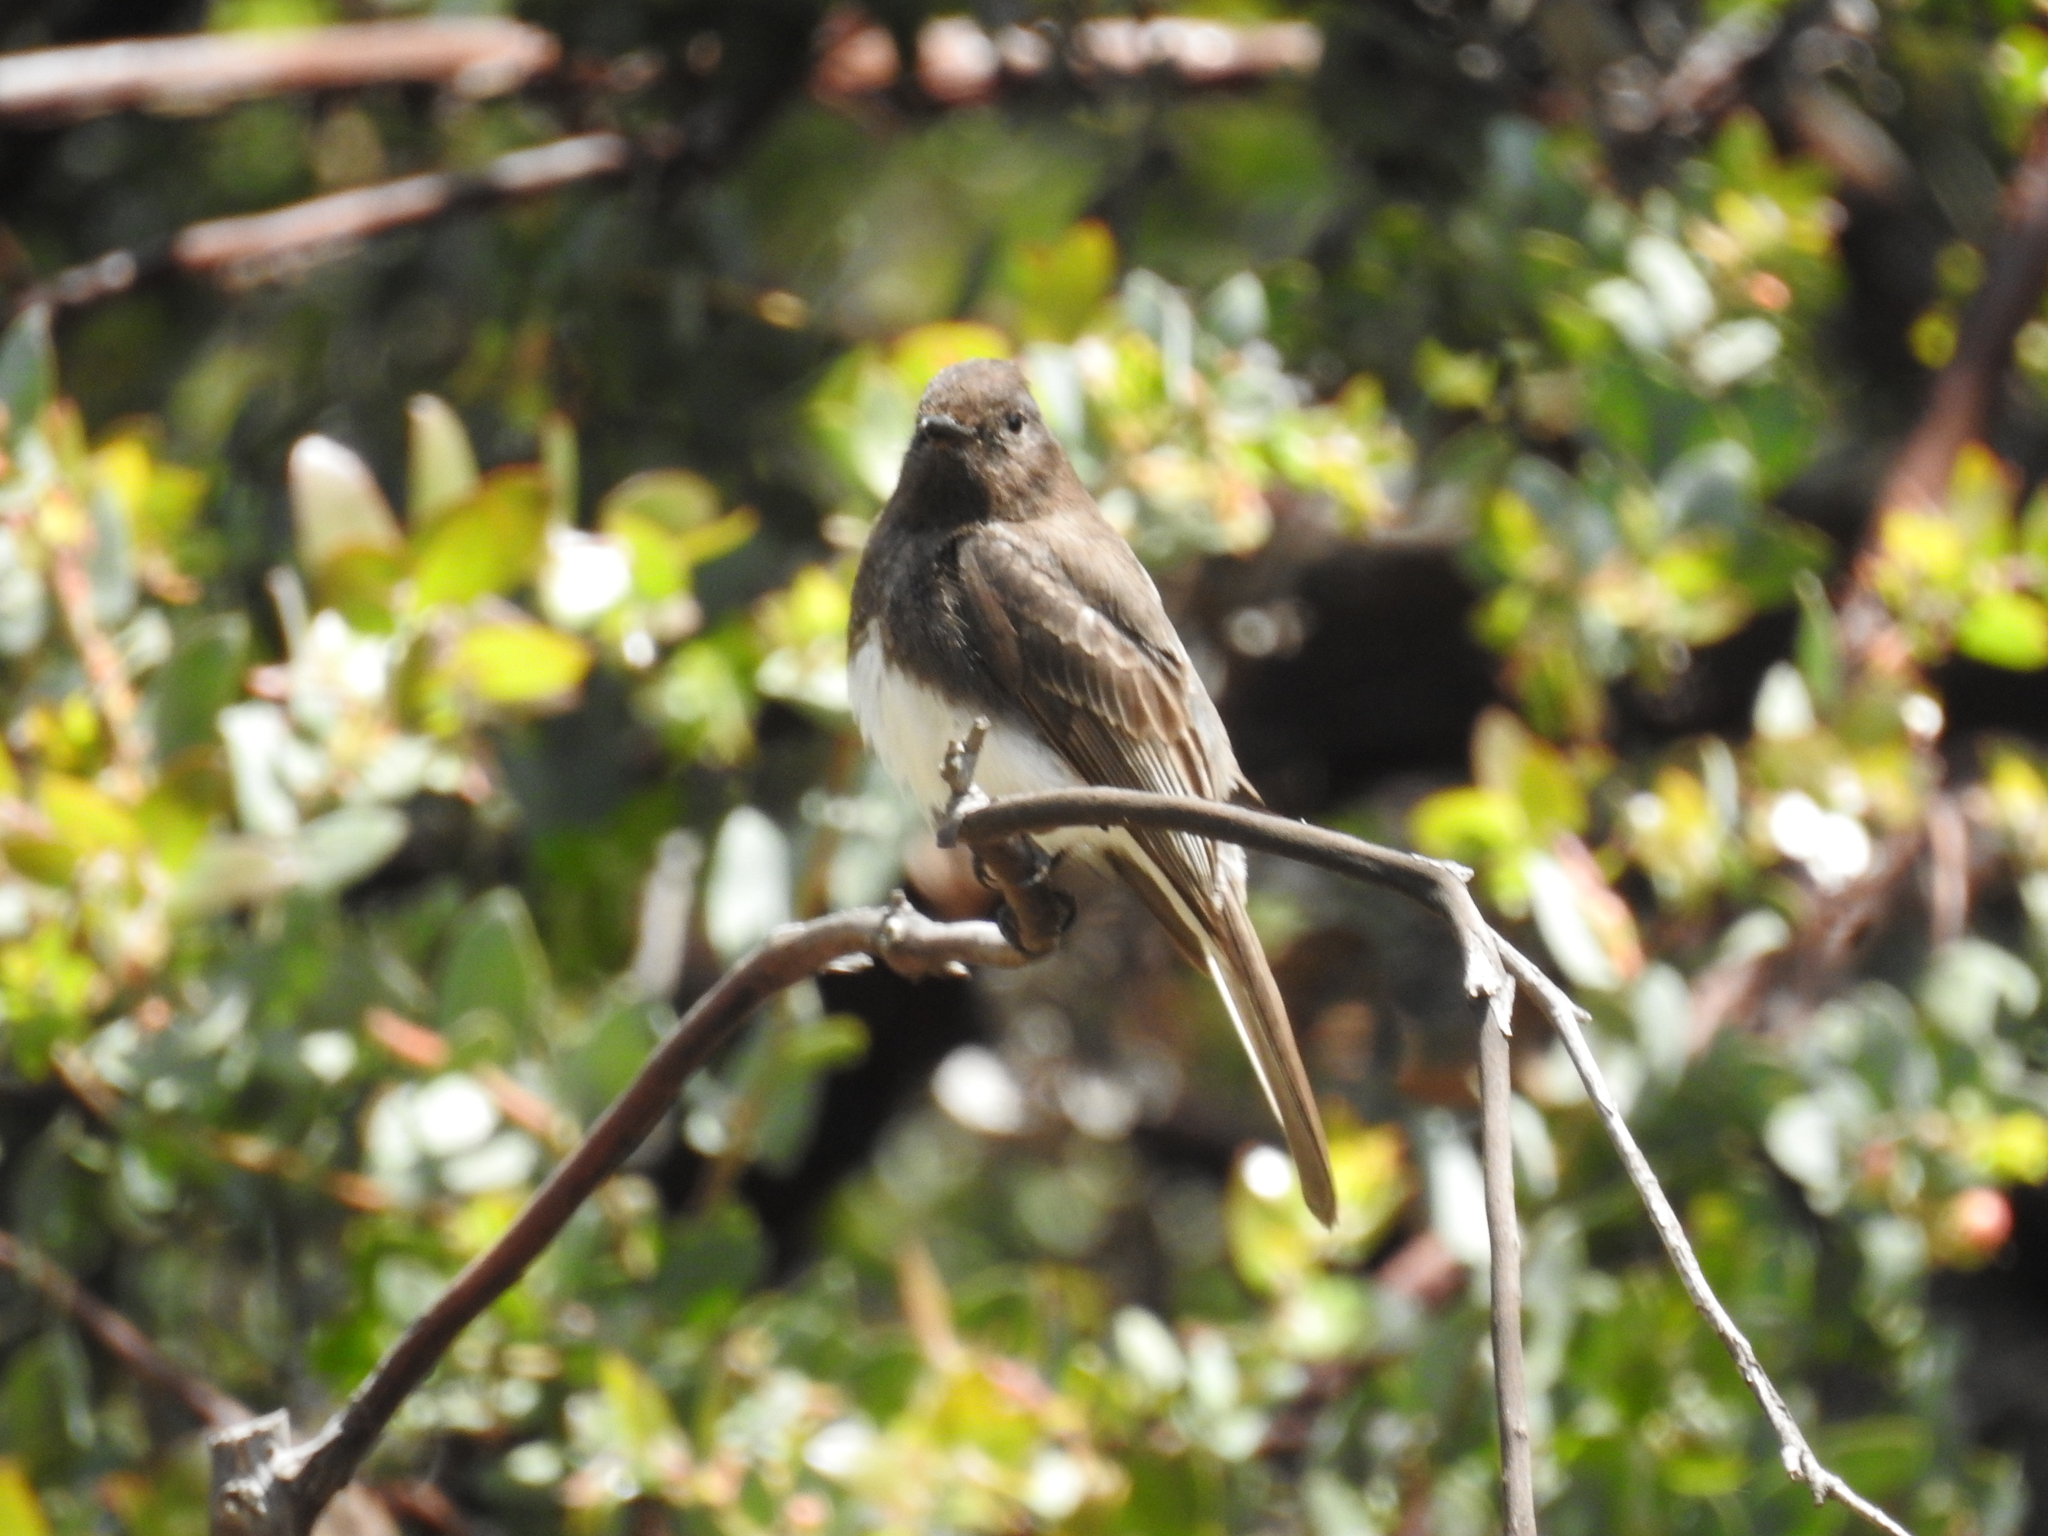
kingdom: Animalia
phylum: Chordata
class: Aves
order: Passeriformes
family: Tyrannidae
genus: Sayornis
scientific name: Sayornis nigricans
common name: Black phoebe
